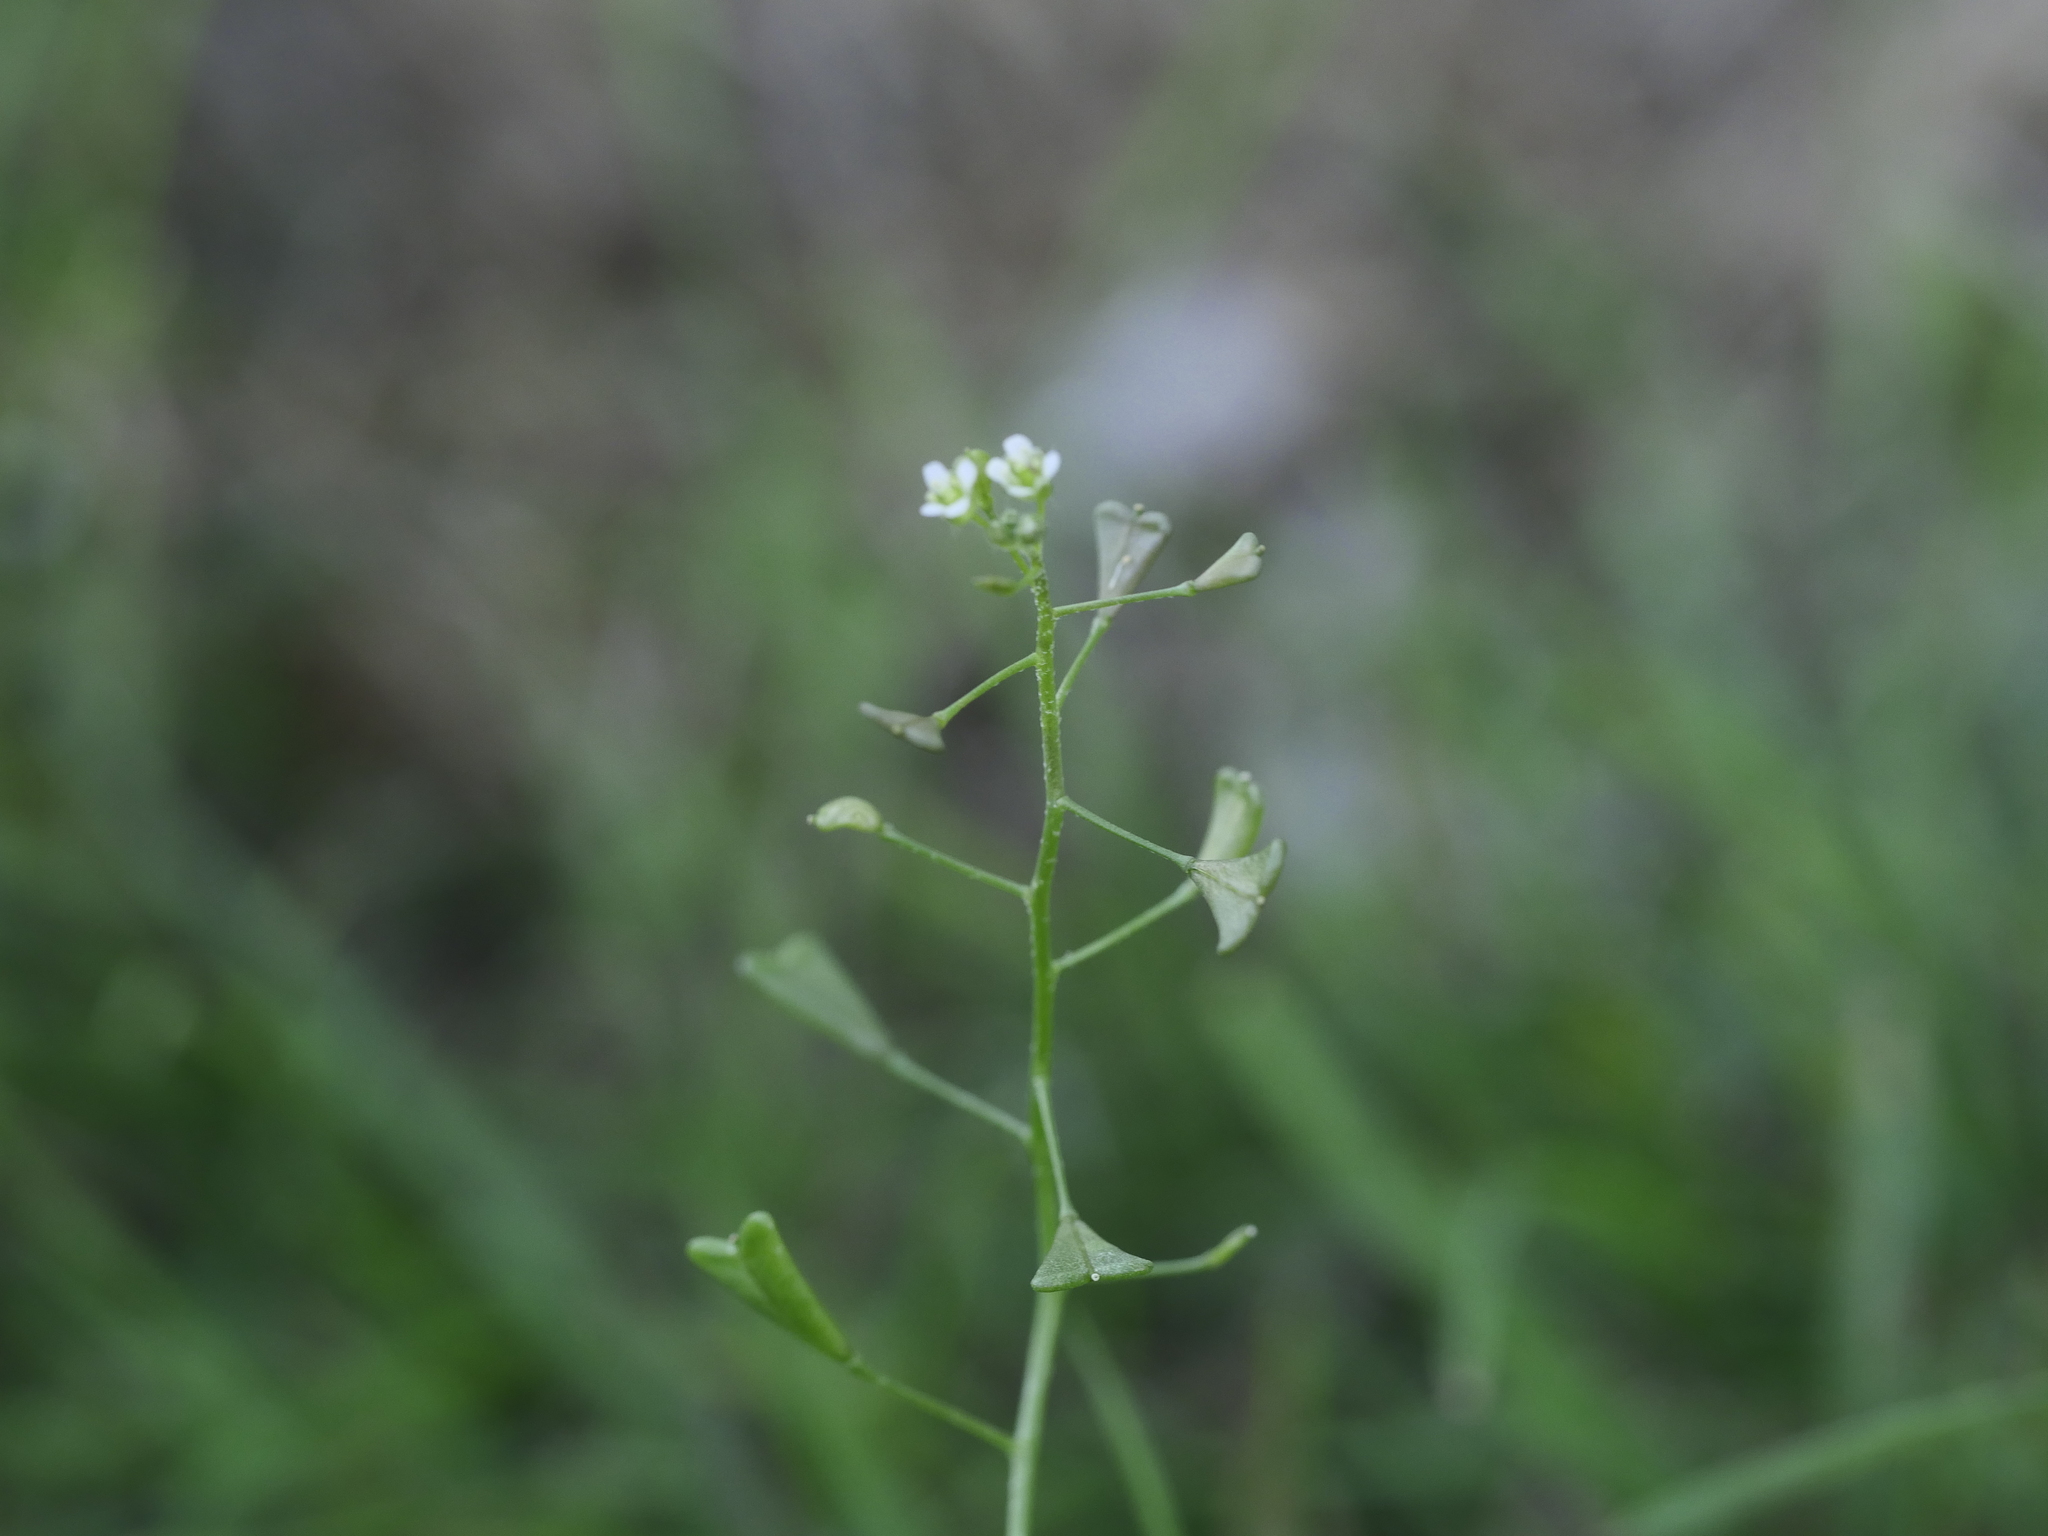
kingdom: Plantae
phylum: Tracheophyta
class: Magnoliopsida
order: Brassicales
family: Brassicaceae
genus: Capsella
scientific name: Capsella bursa-pastoris
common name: Shepherd's purse
